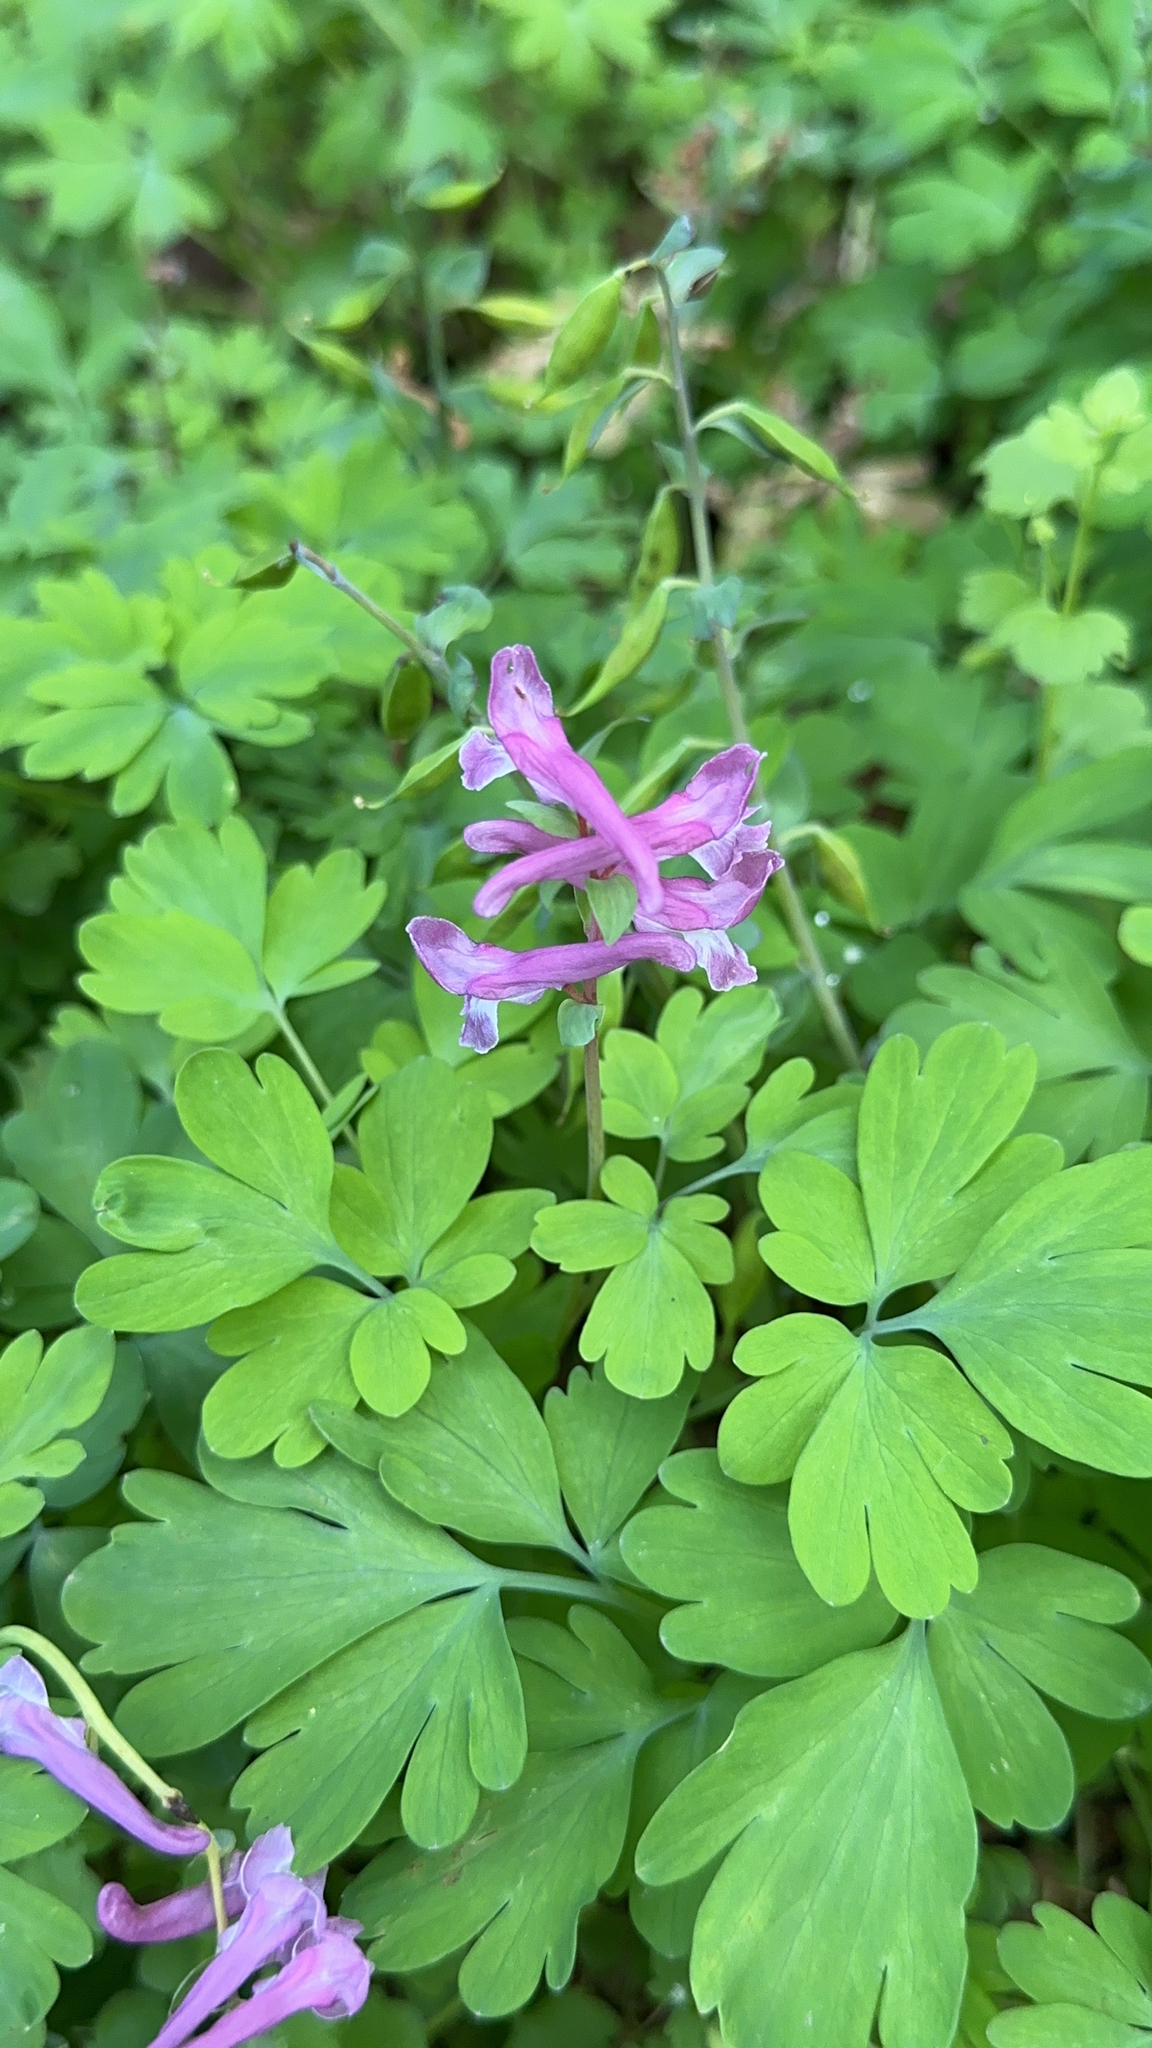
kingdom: Plantae
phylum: Tracheophyta
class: Magnoliopsida
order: Ranunculales
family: Papaveraceae
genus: Corydalis
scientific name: Corydalis cava
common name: Hollowroot
